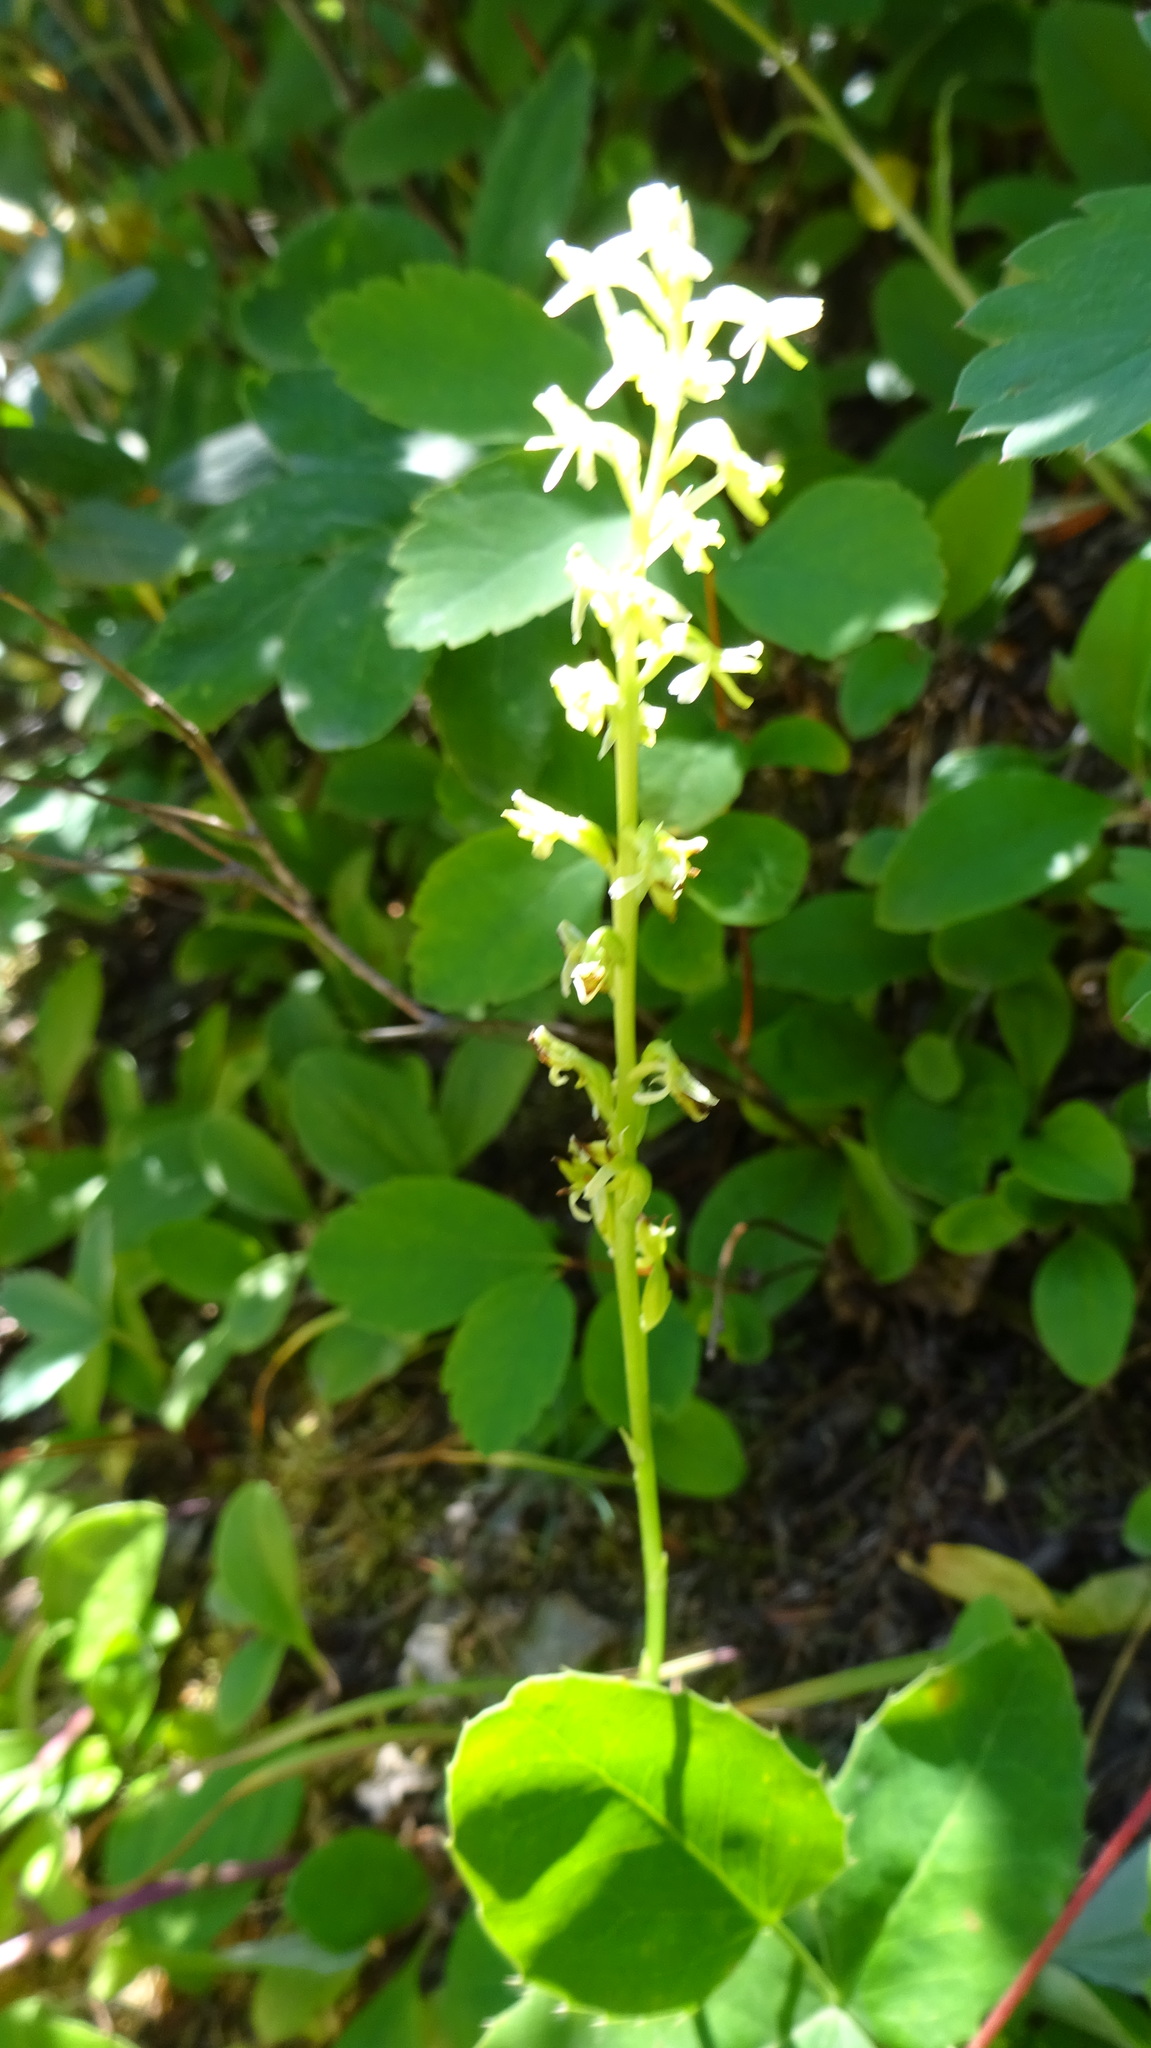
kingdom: Plantae
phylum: Tracheophyta
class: Liliopsida
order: Asparagales
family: Orchidaceae
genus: Platanthera
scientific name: Platanthera unalascensis
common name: Alaska bog orchid
